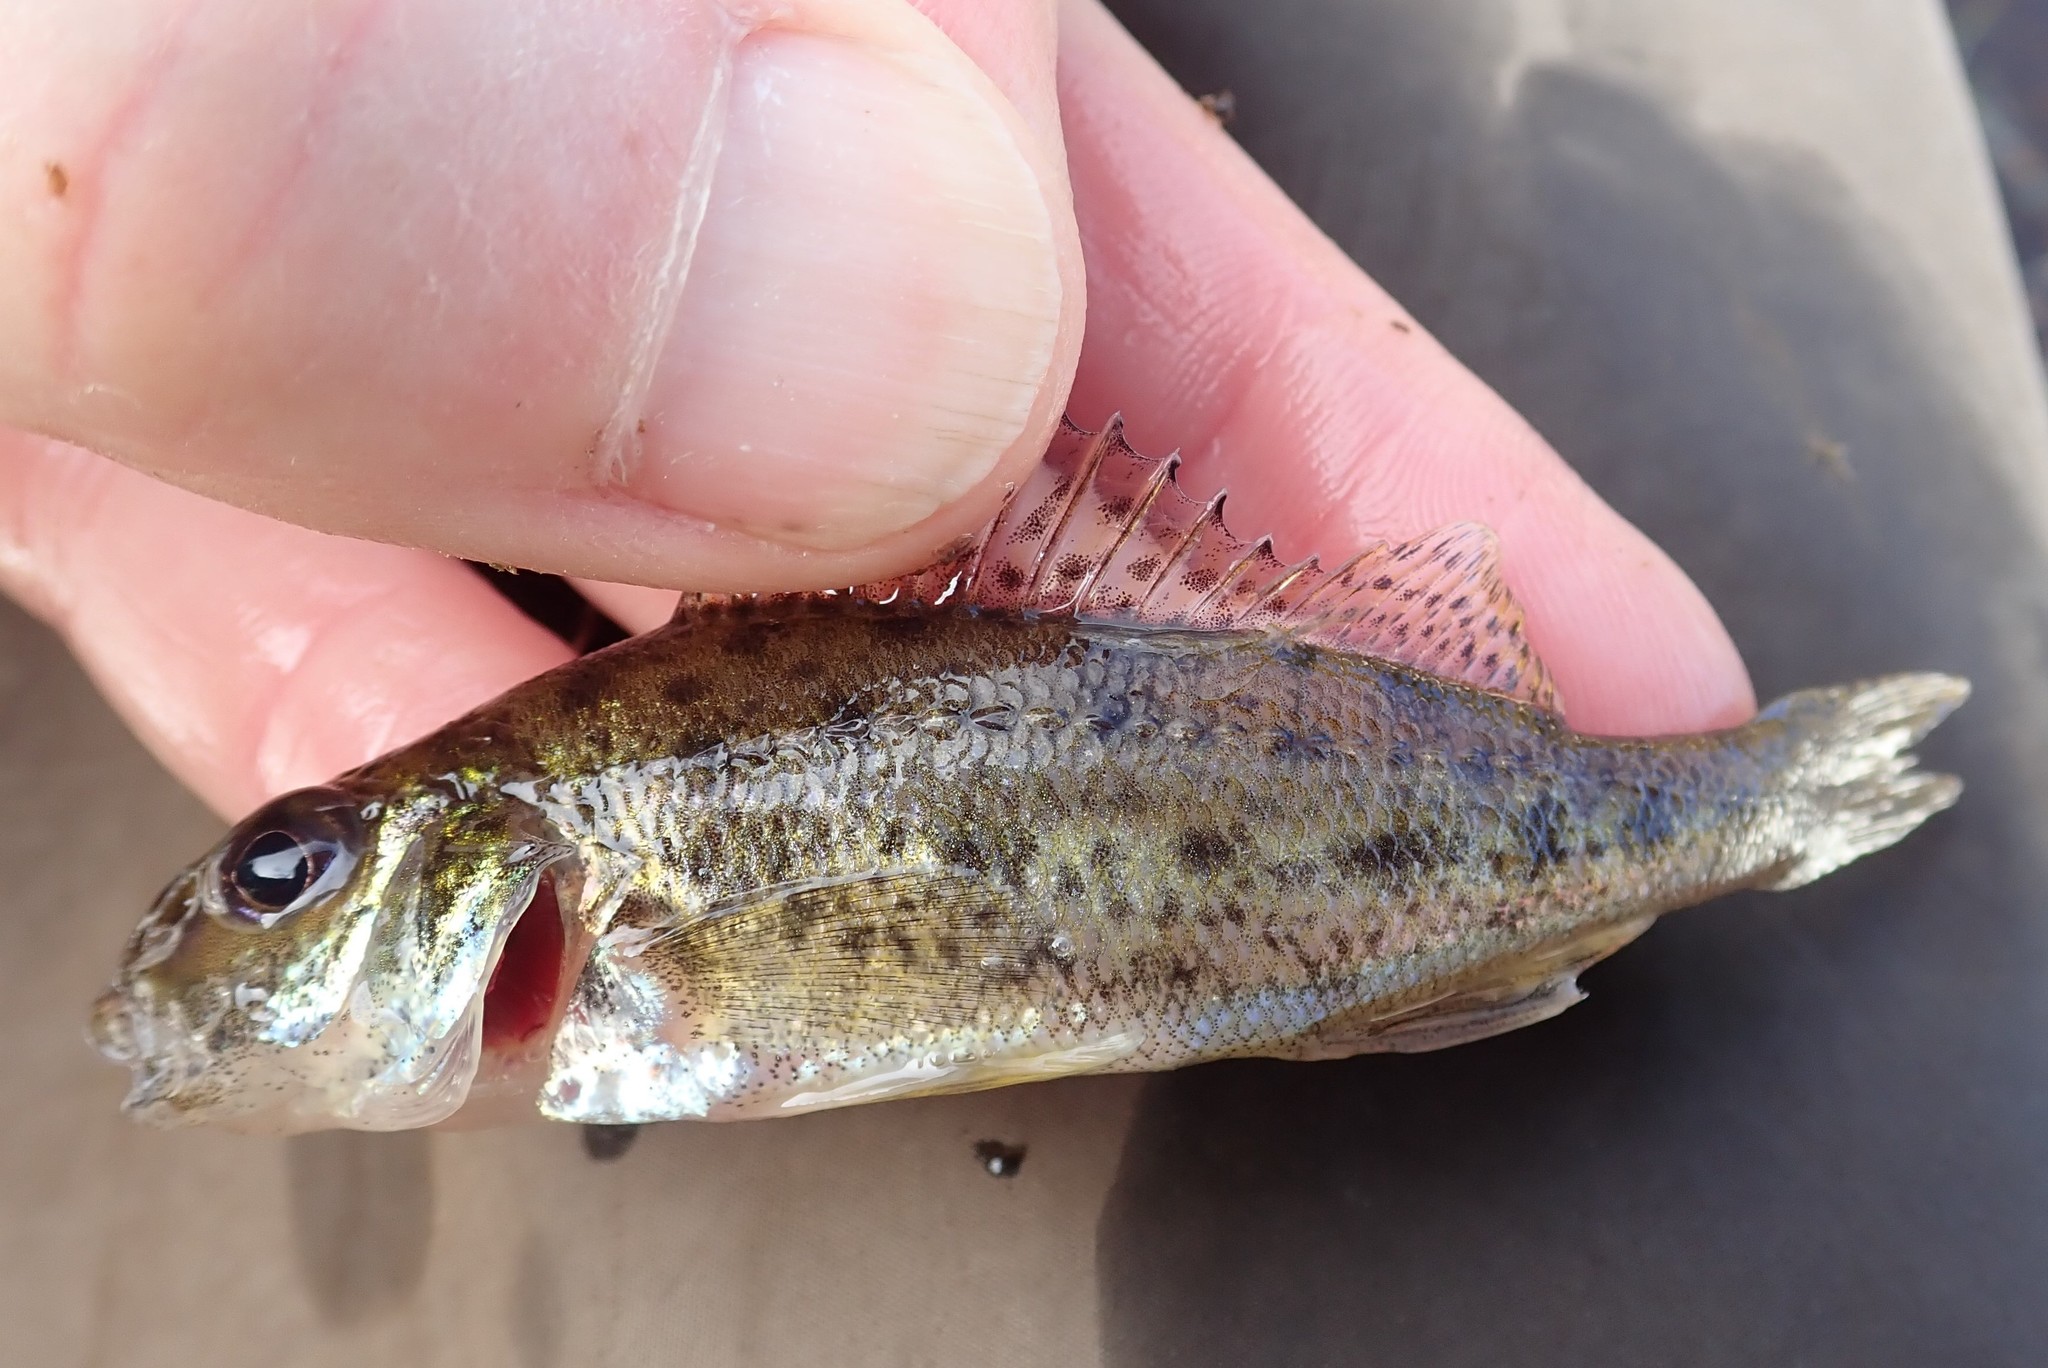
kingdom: Animalia
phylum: Chordata
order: Perciformes
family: Percidae
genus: Gymnocephalus
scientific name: Gymnocephalus cernua
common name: Ruffe
